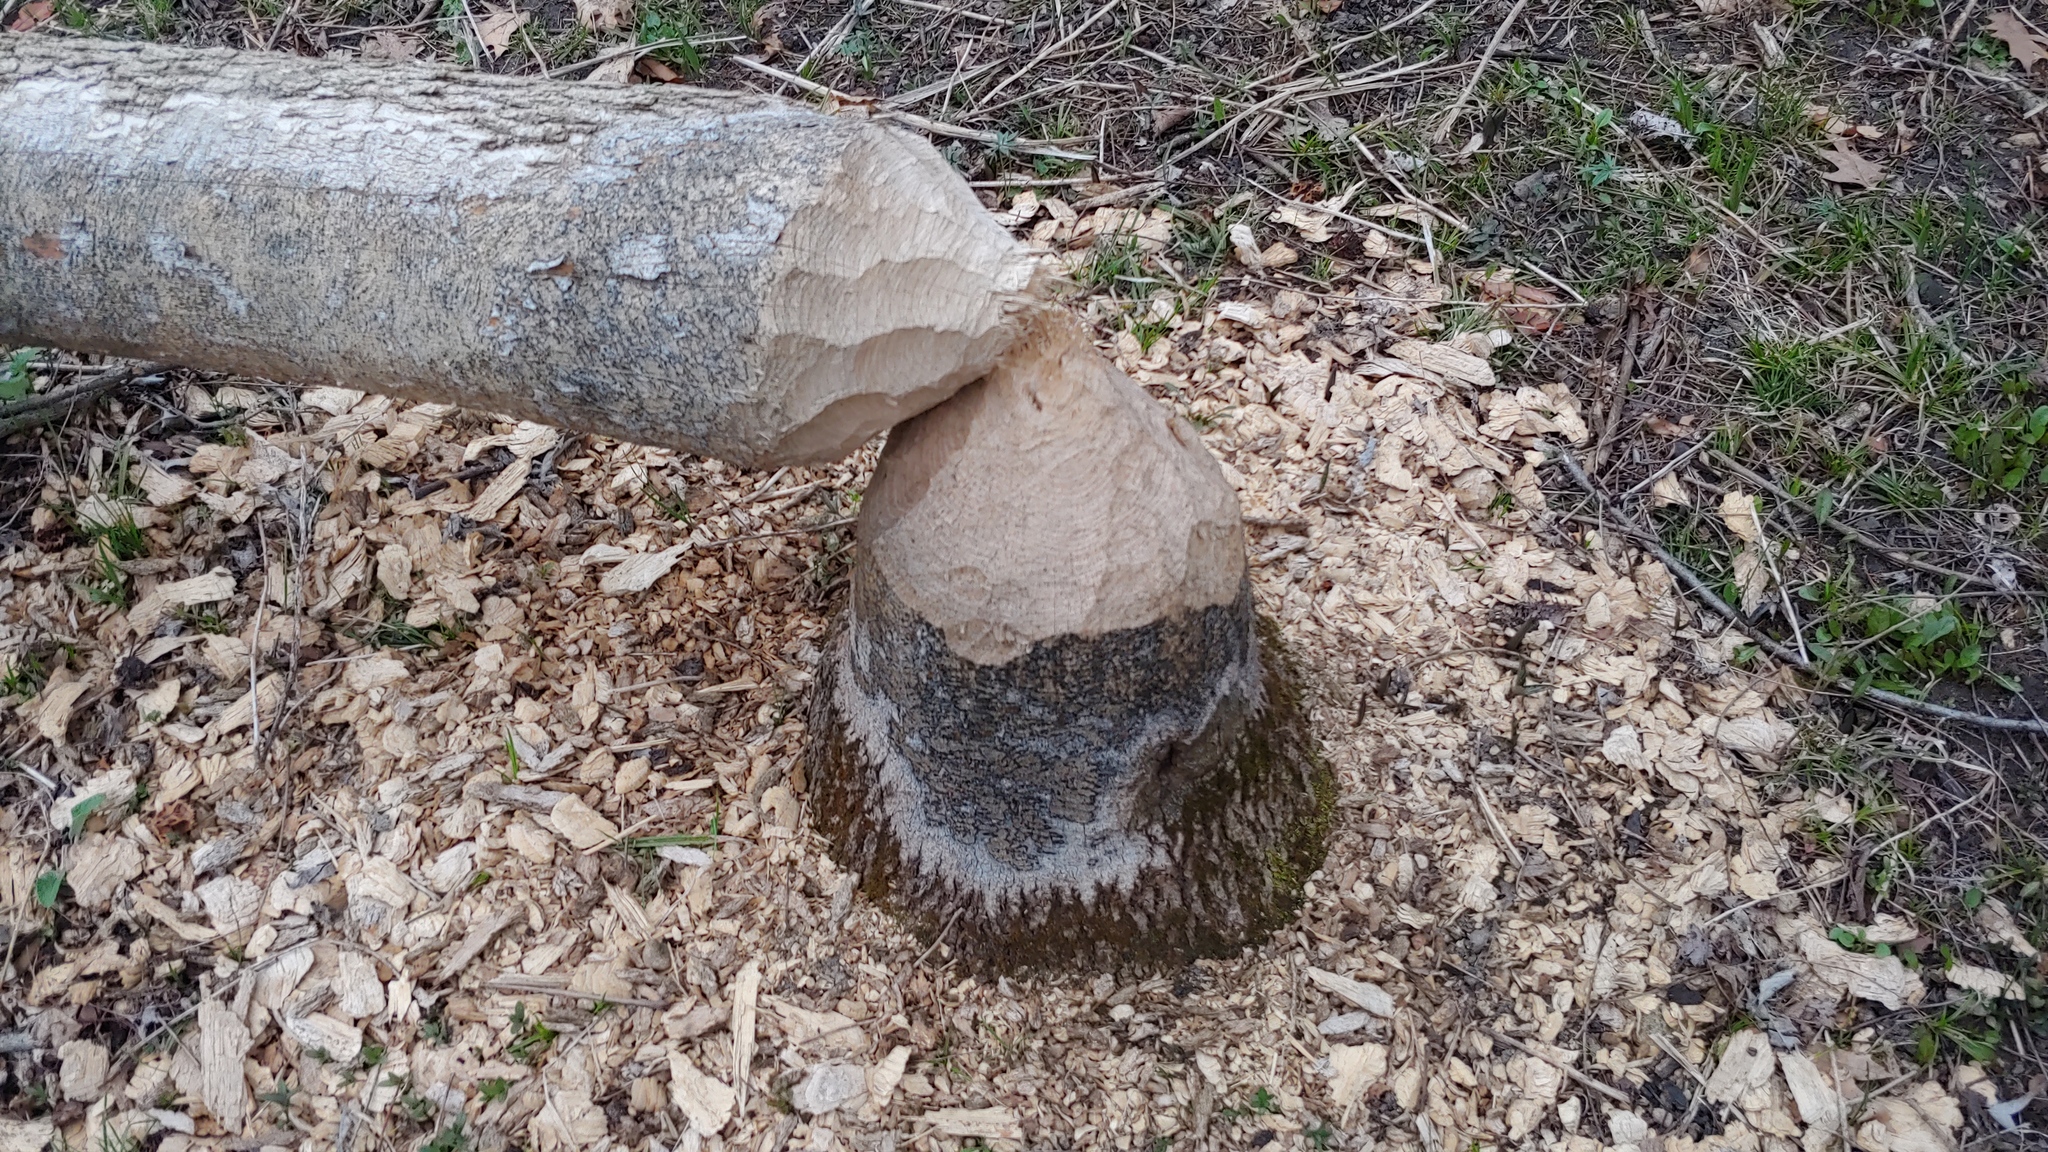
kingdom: Animalia
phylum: Chordata
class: Mammalia
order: Rodentia
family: Castoridae
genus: Castor
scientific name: Castor canadensis
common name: American beaver
